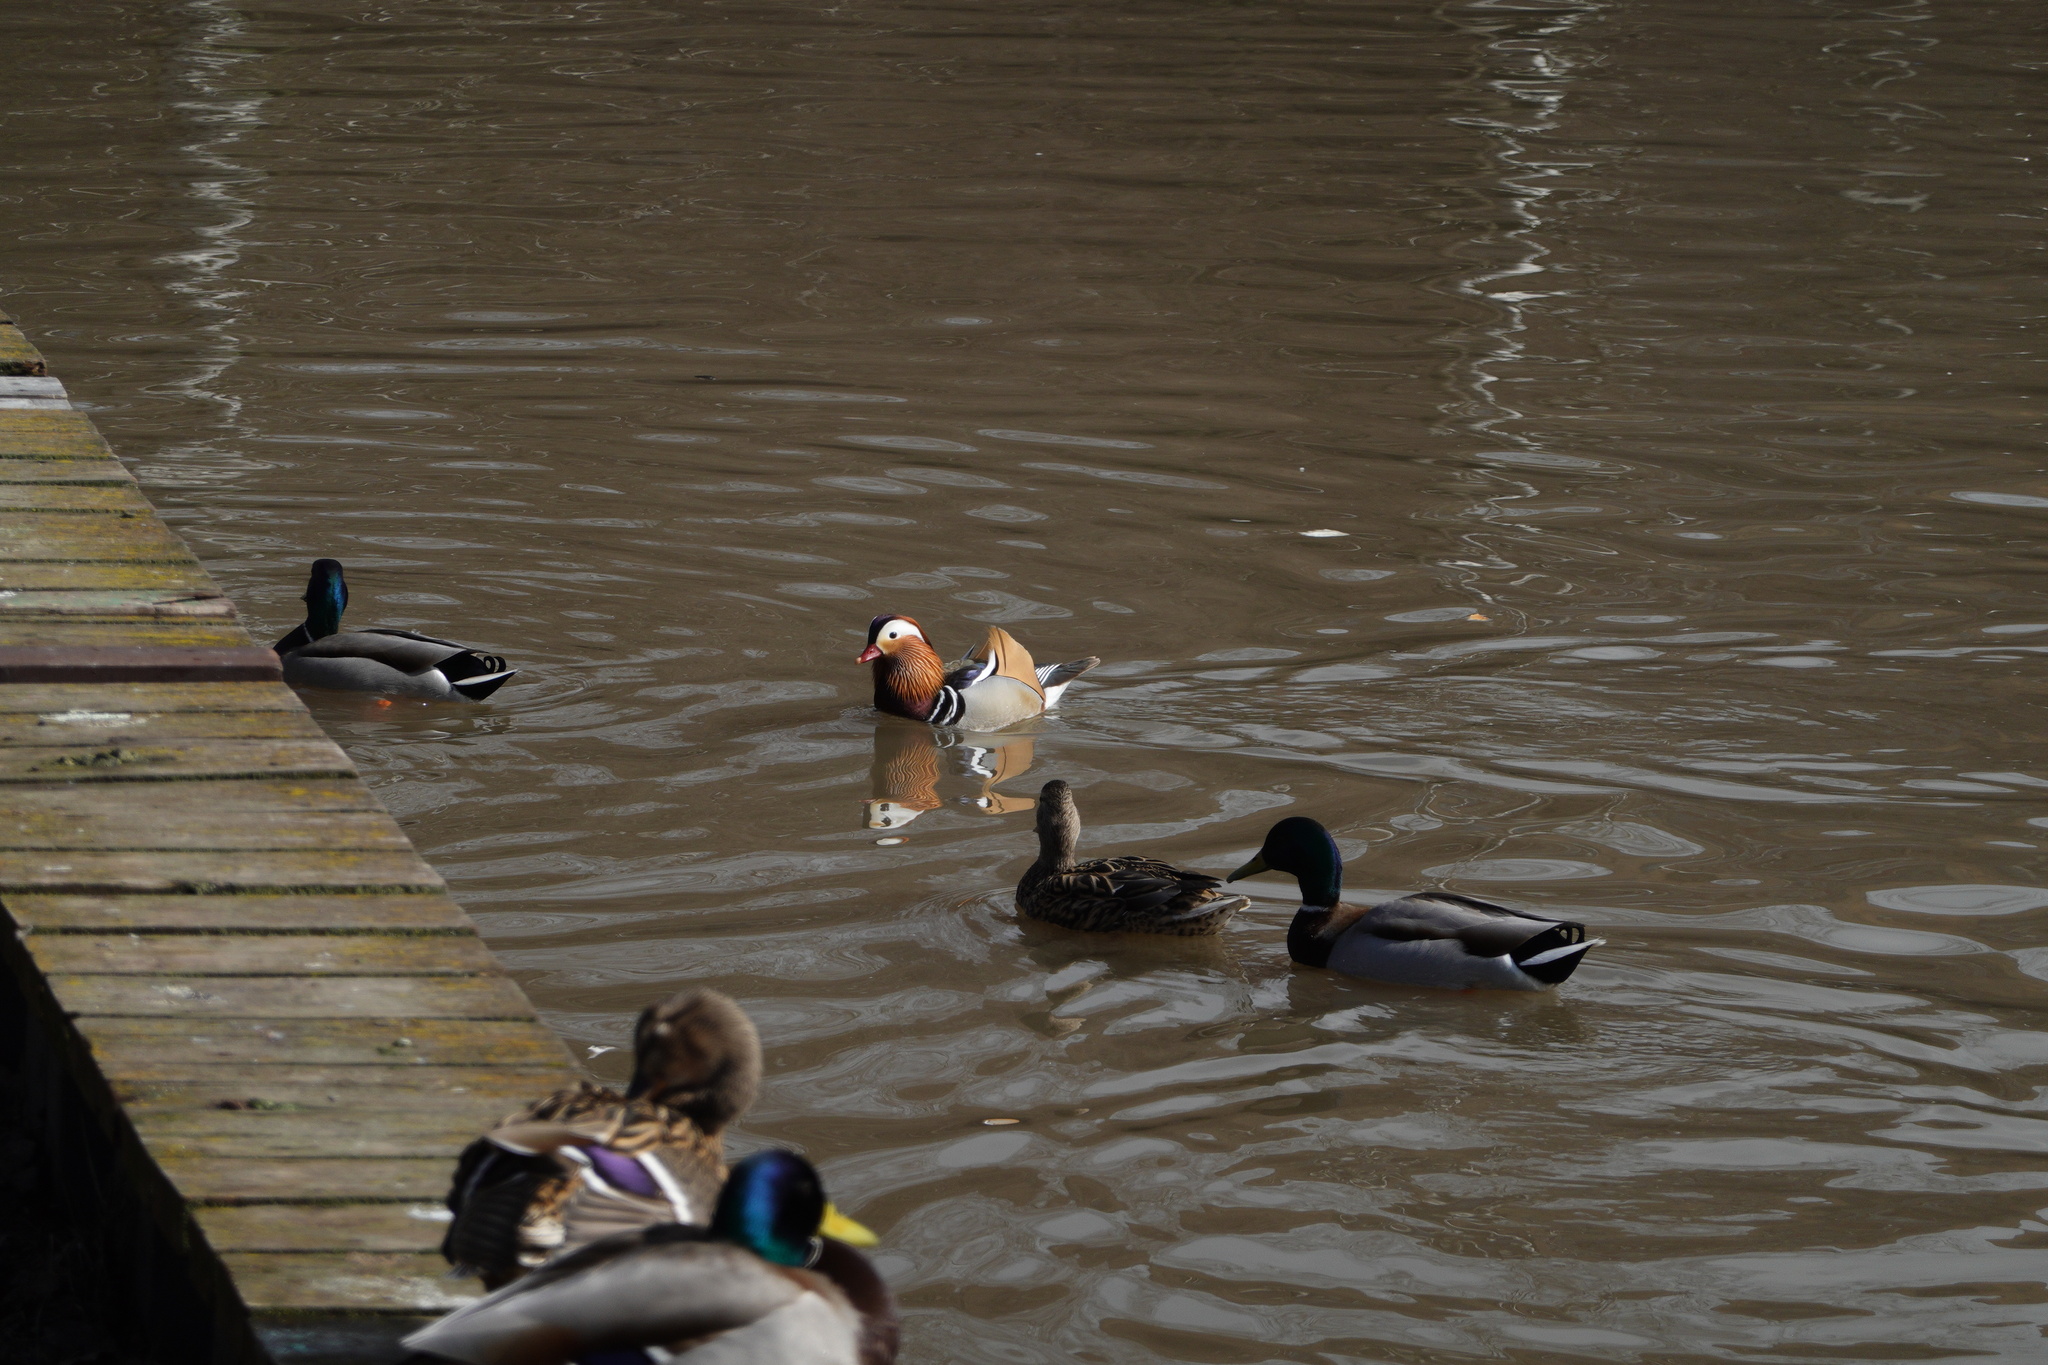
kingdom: Animalia
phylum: Chordata
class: Aves
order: Anseriformes
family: Anatidae
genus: Aix
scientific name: Aix galericulata
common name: Mandarin duck
